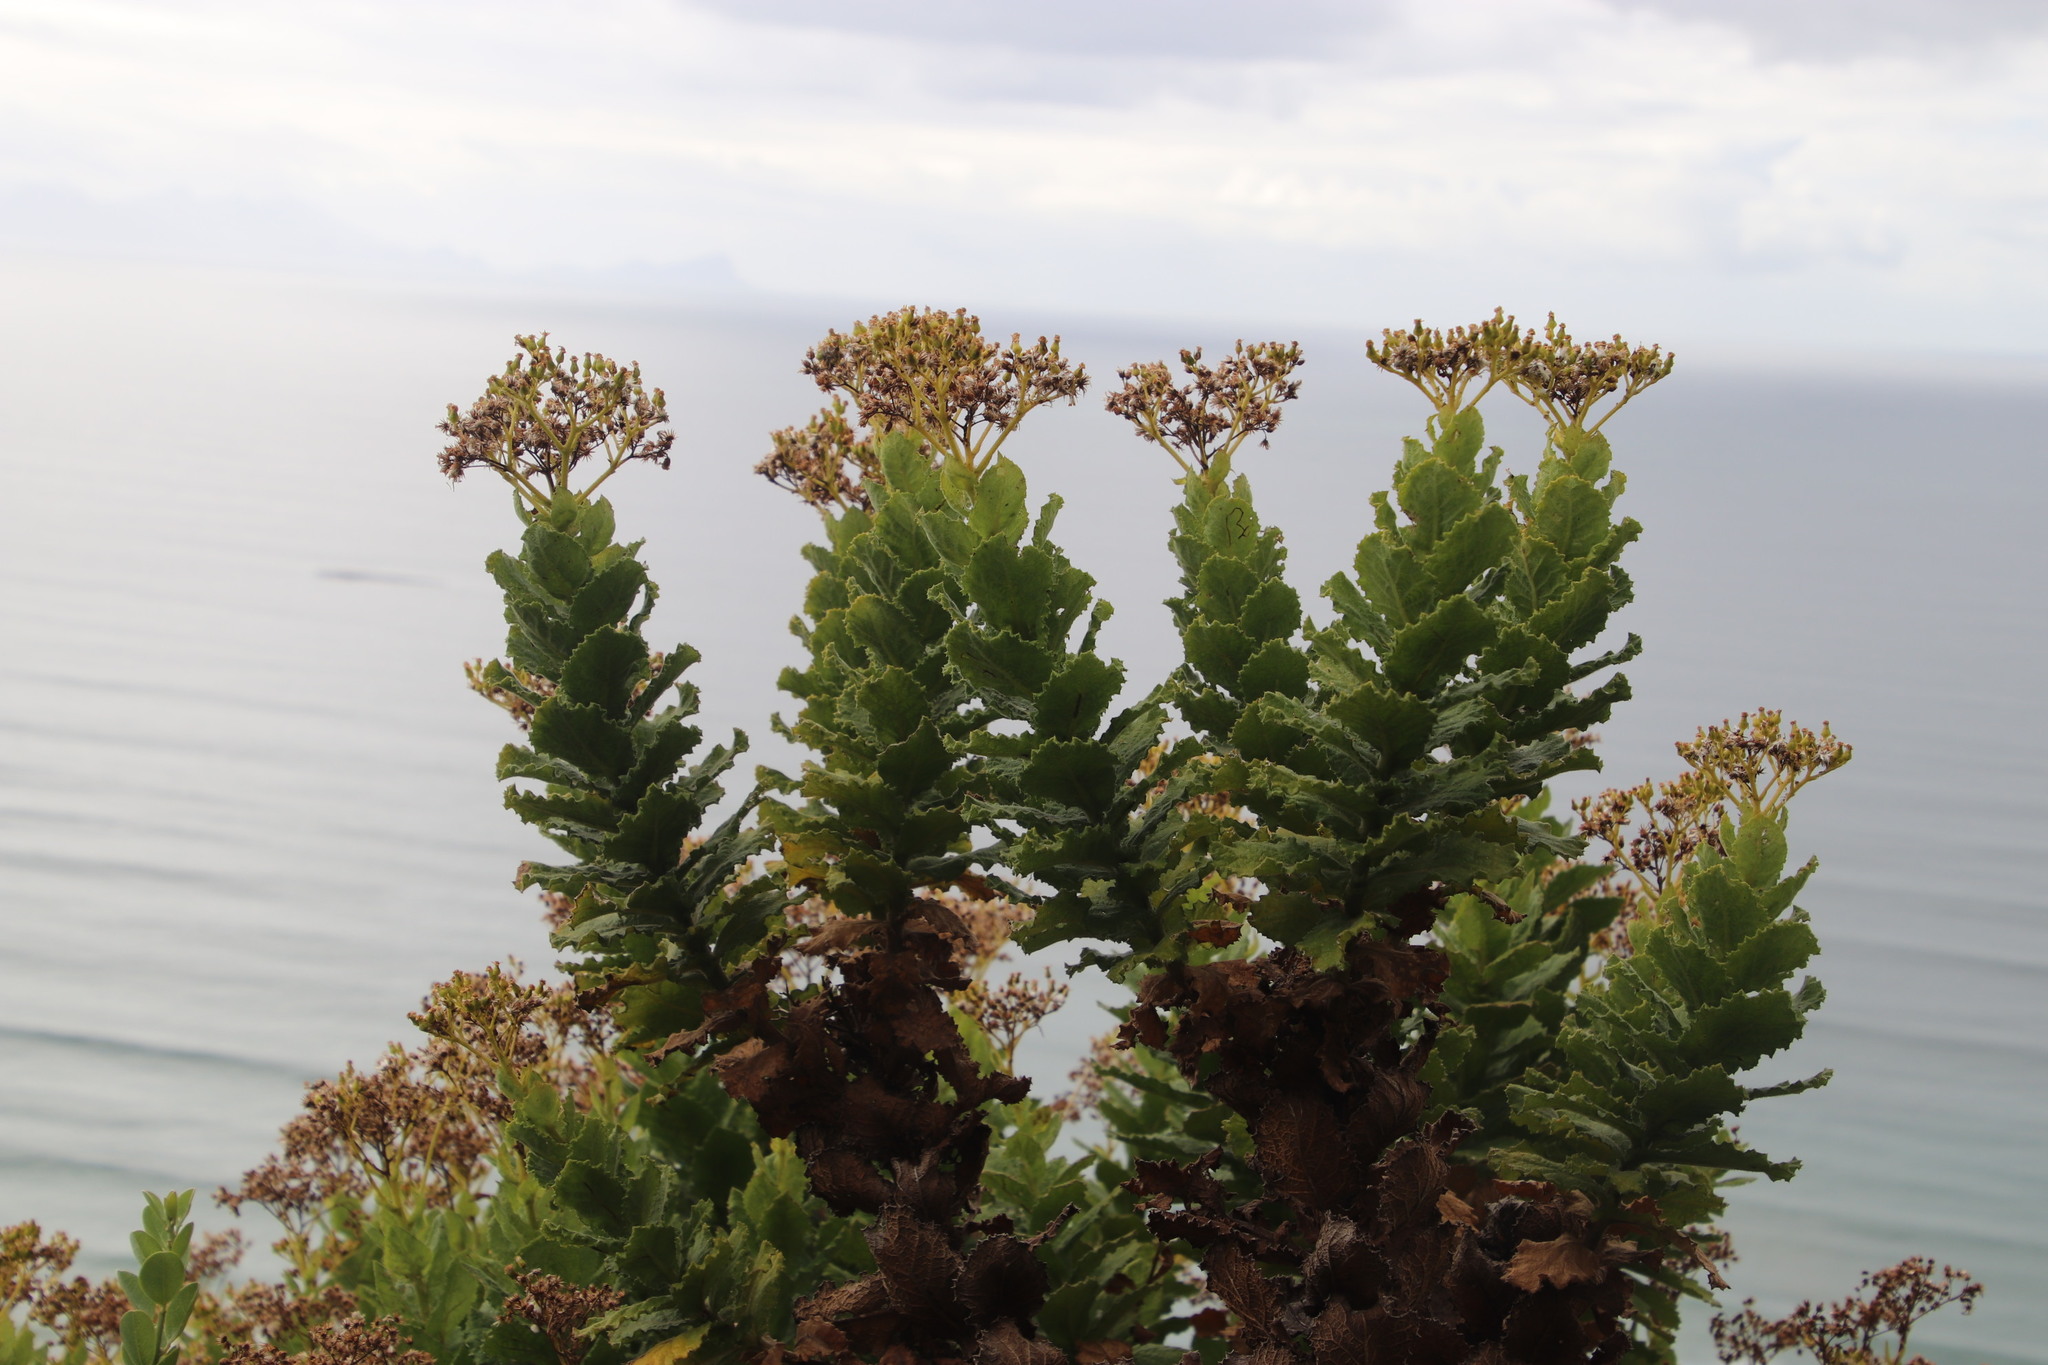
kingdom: Plantae
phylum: Tracheophyta
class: Magnoliopsida
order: Asterales
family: Asteraceae
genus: Senecio
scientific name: Senecio rigidus
